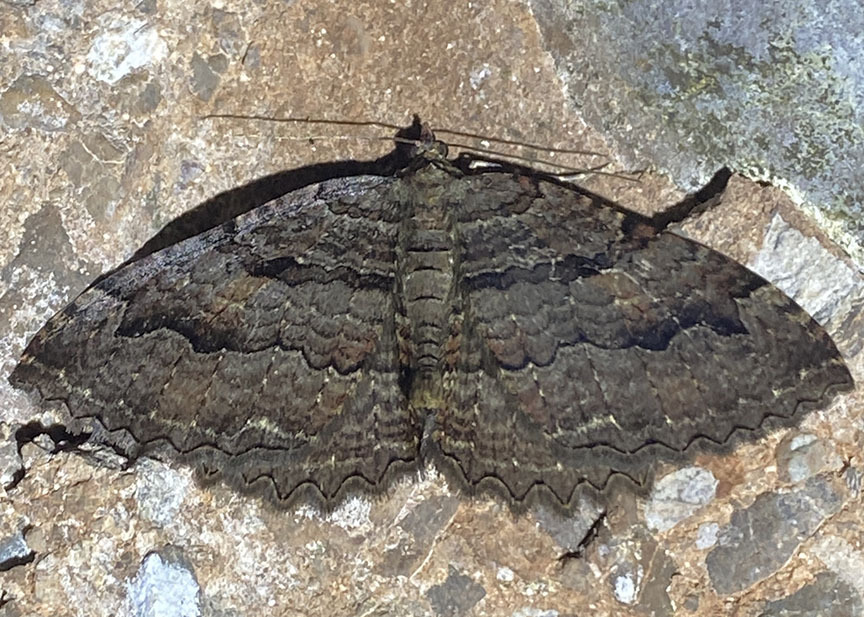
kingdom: Animalia
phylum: Arthropoda
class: Insecta
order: Lepidoptera
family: Geometridae
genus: Triphosa
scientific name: Triphosa haesitata
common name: Tissue moth
